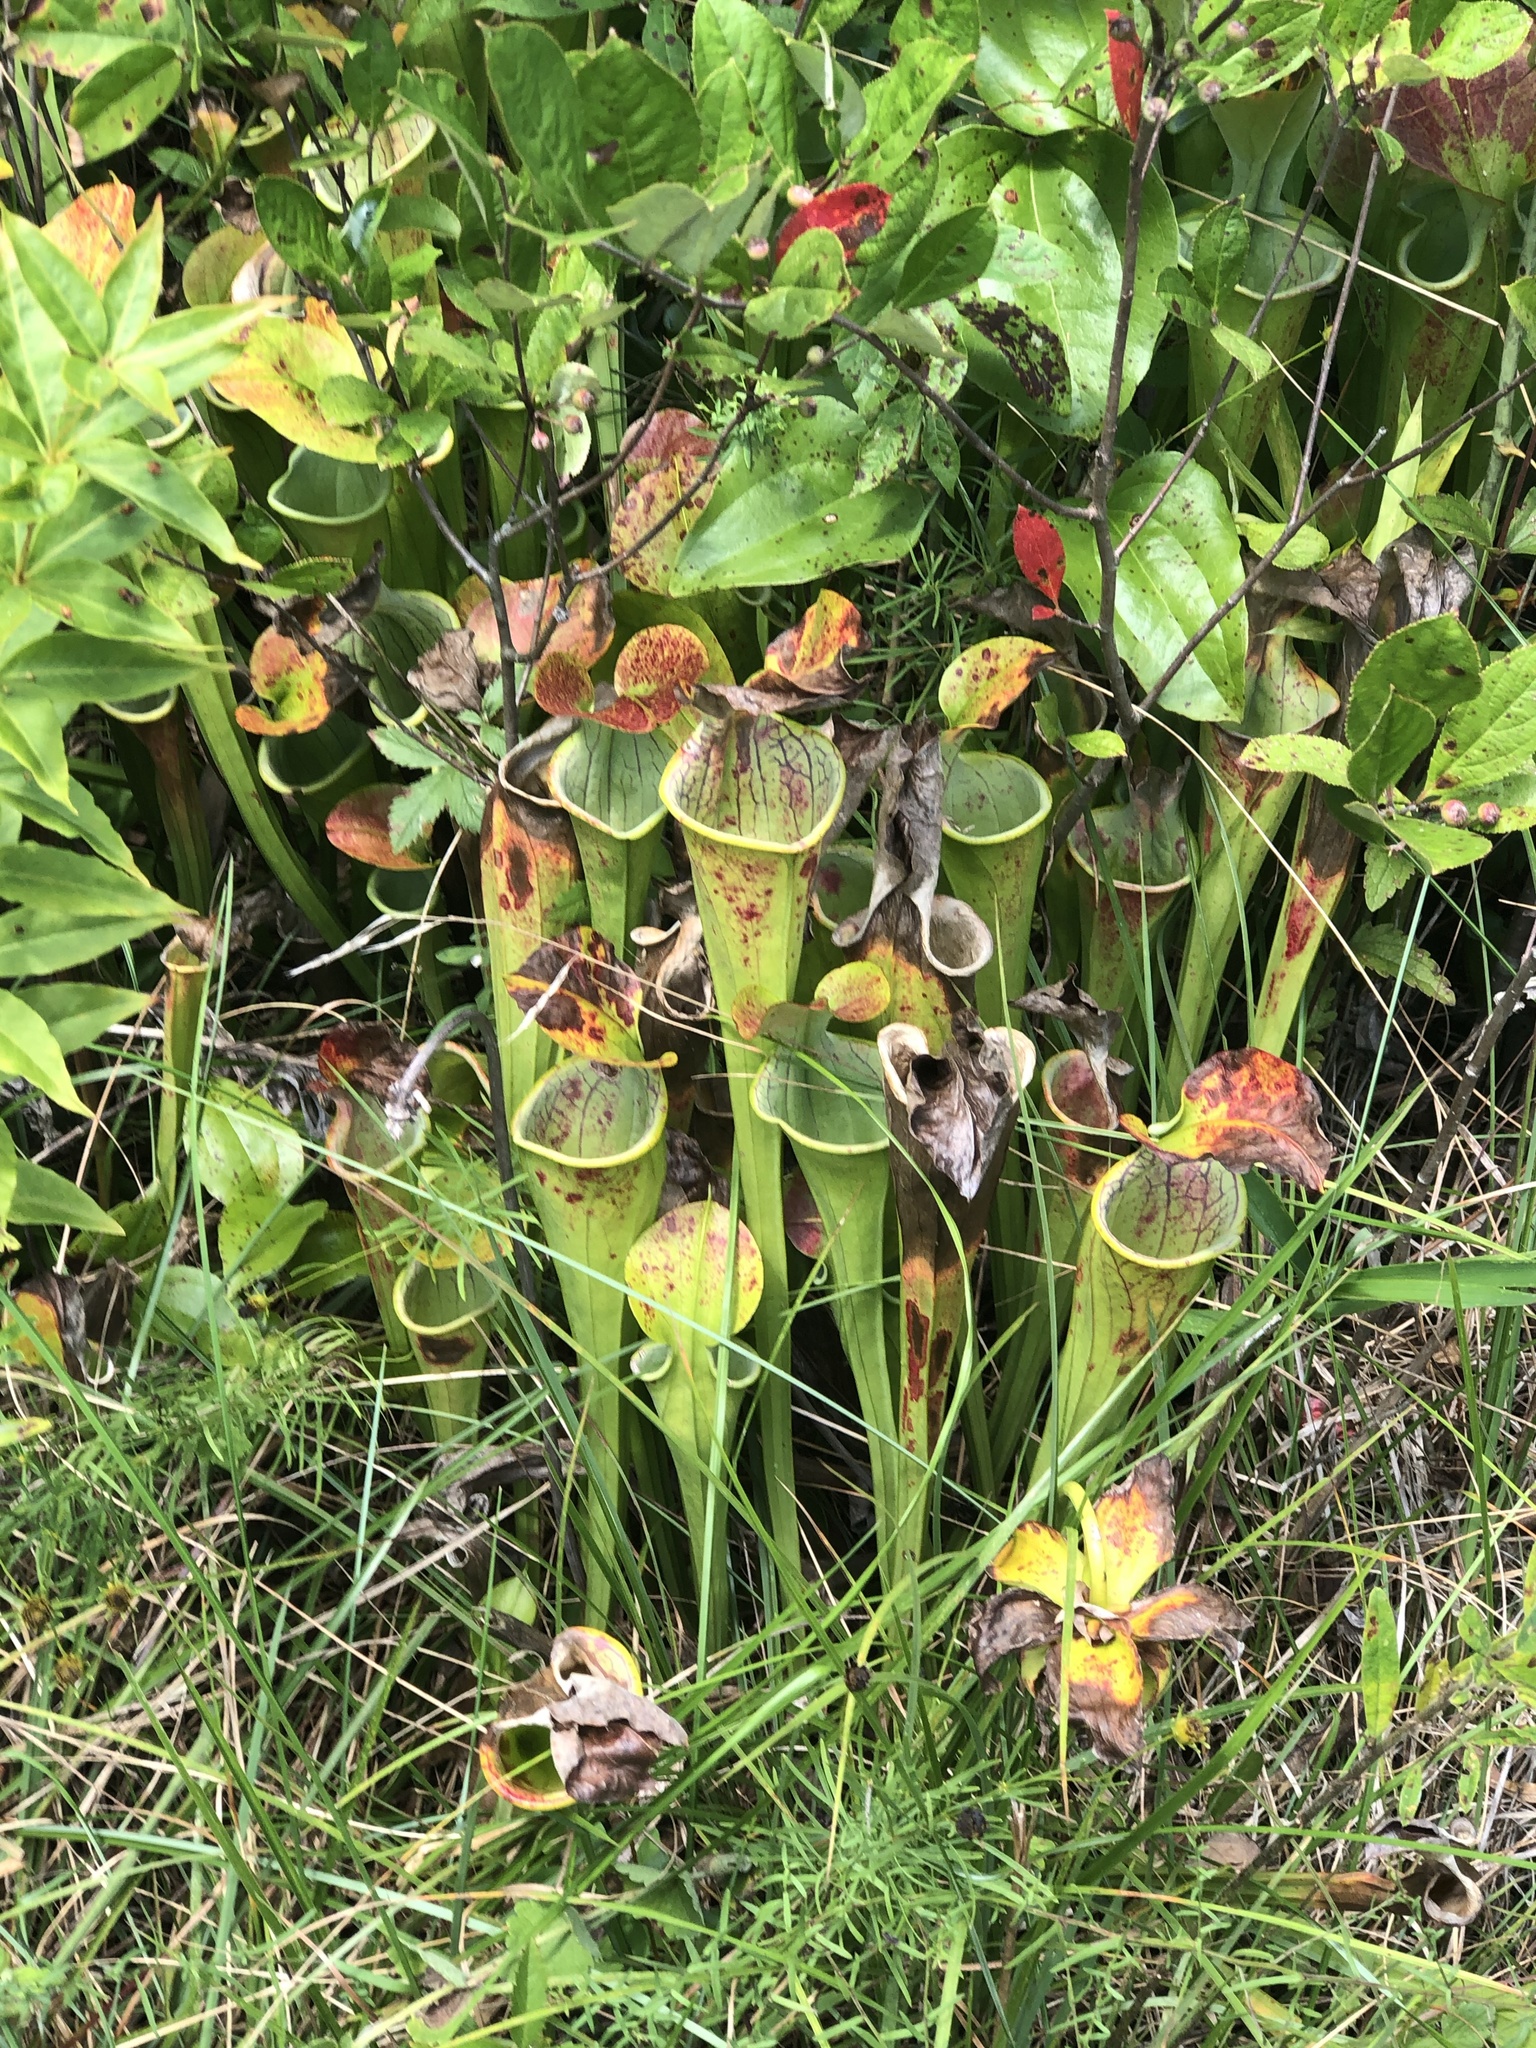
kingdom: Plantae
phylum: Tracheophyta
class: Magnoliopsida
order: Ericales
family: Sarraceniaceae
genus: Sarracenia
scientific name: Sarracenia oreophila
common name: Green pitcherplant
